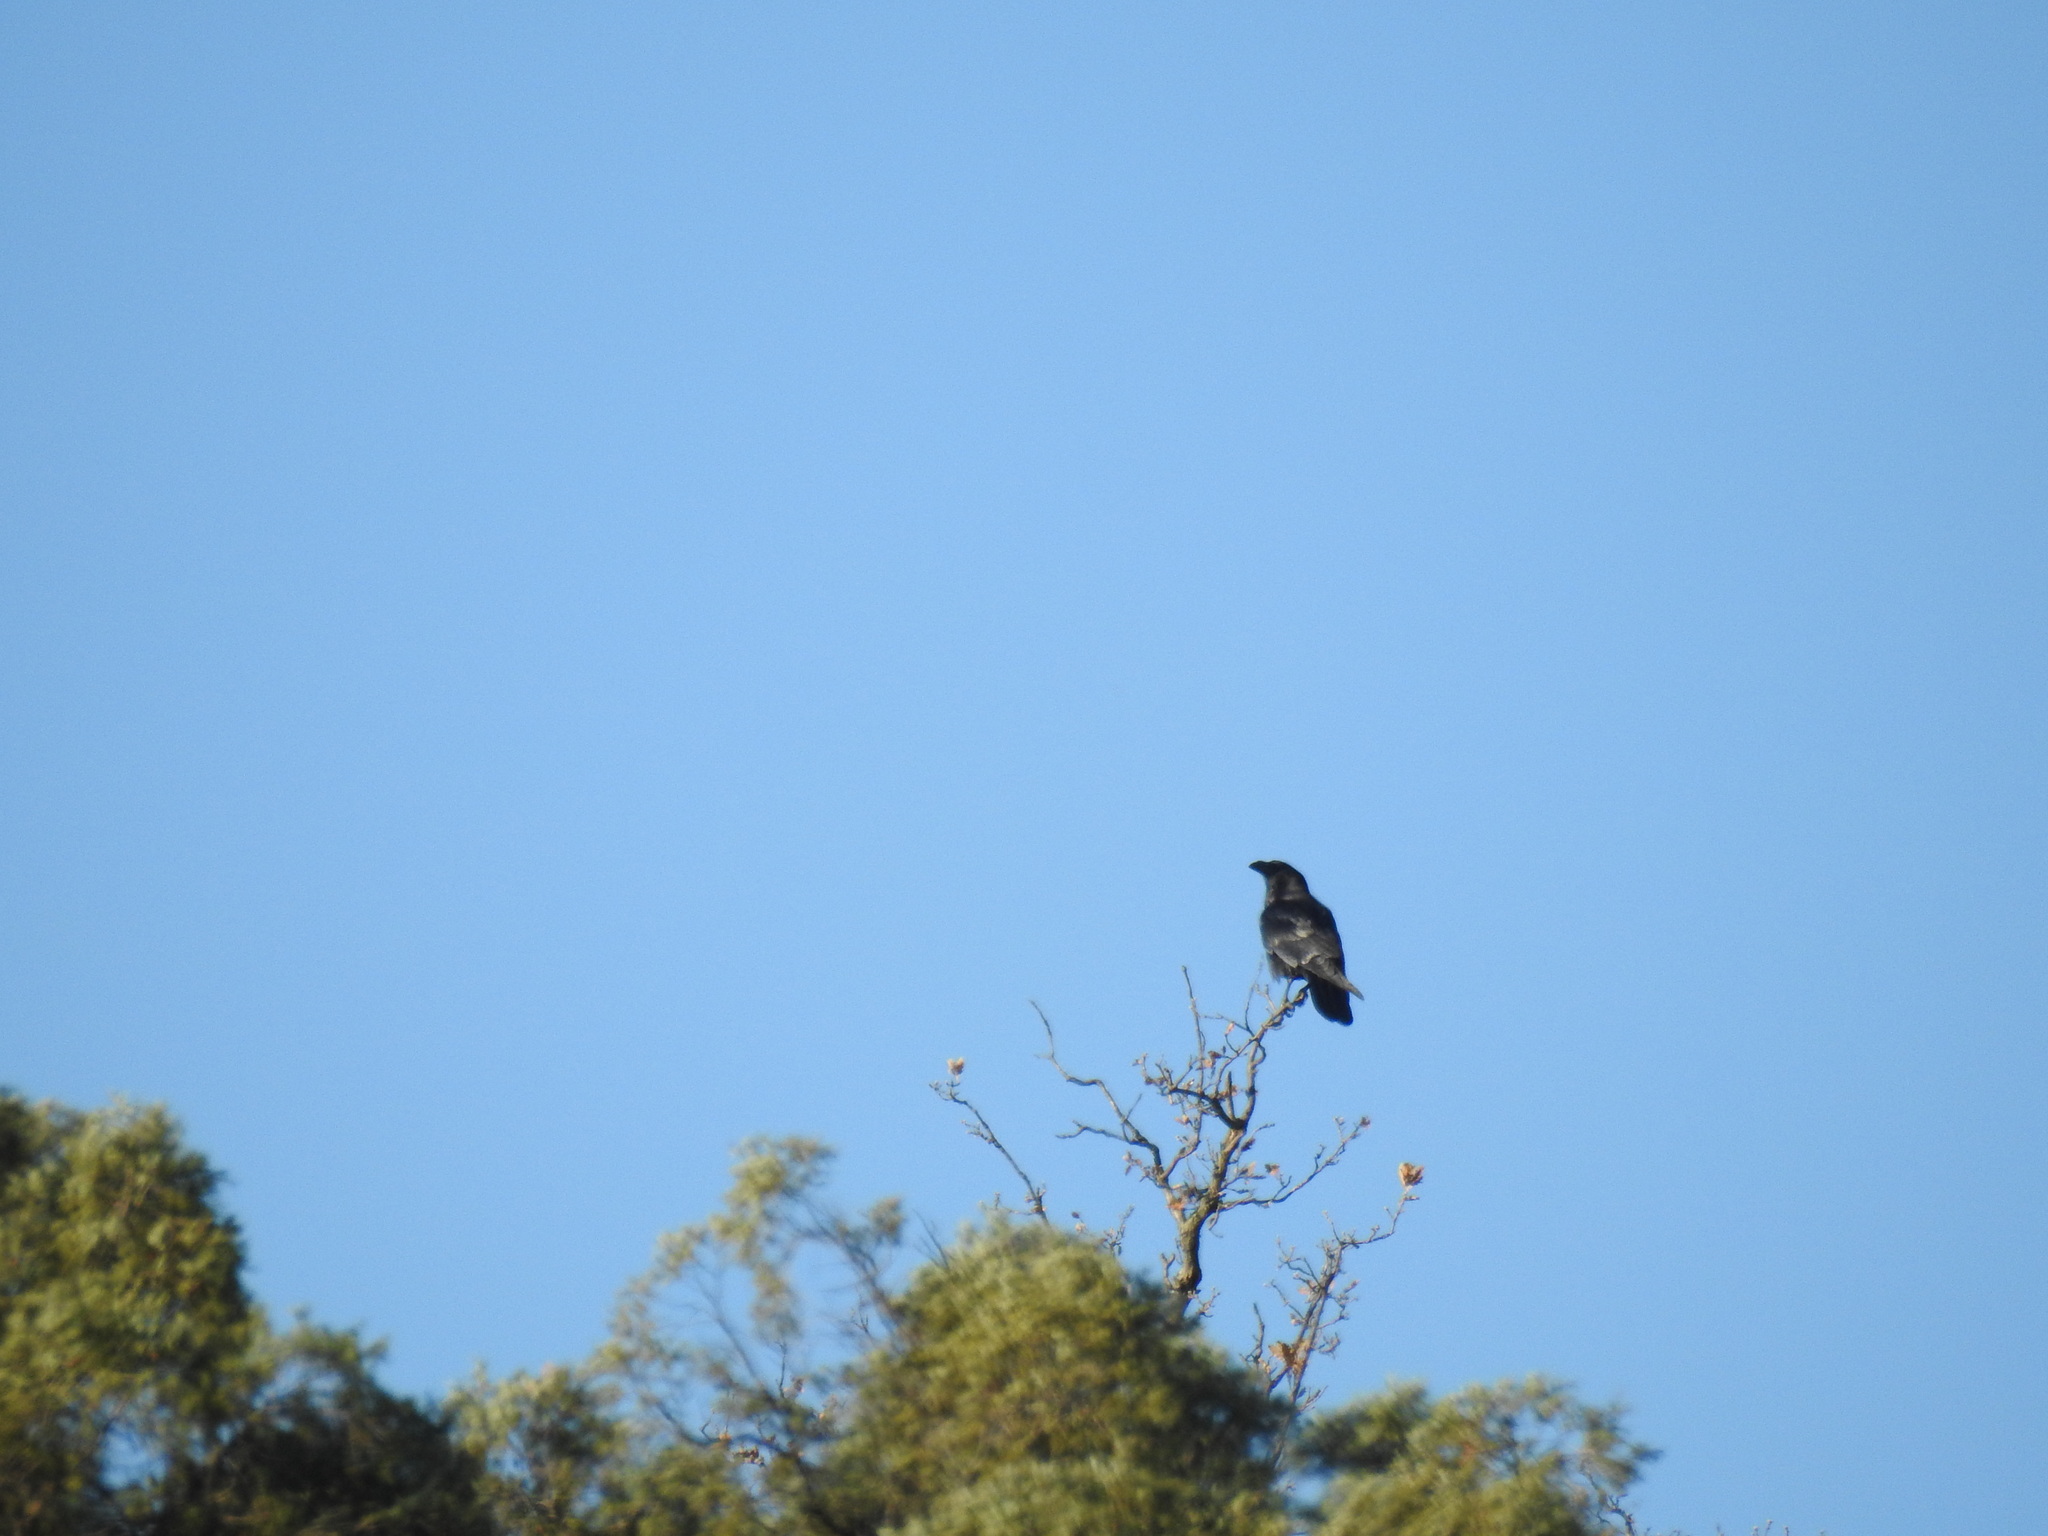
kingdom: Animalia
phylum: Chordata
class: Aves
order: Passeriformes
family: Corvidae
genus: Corvus
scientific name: Corvus corax
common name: Common raven
